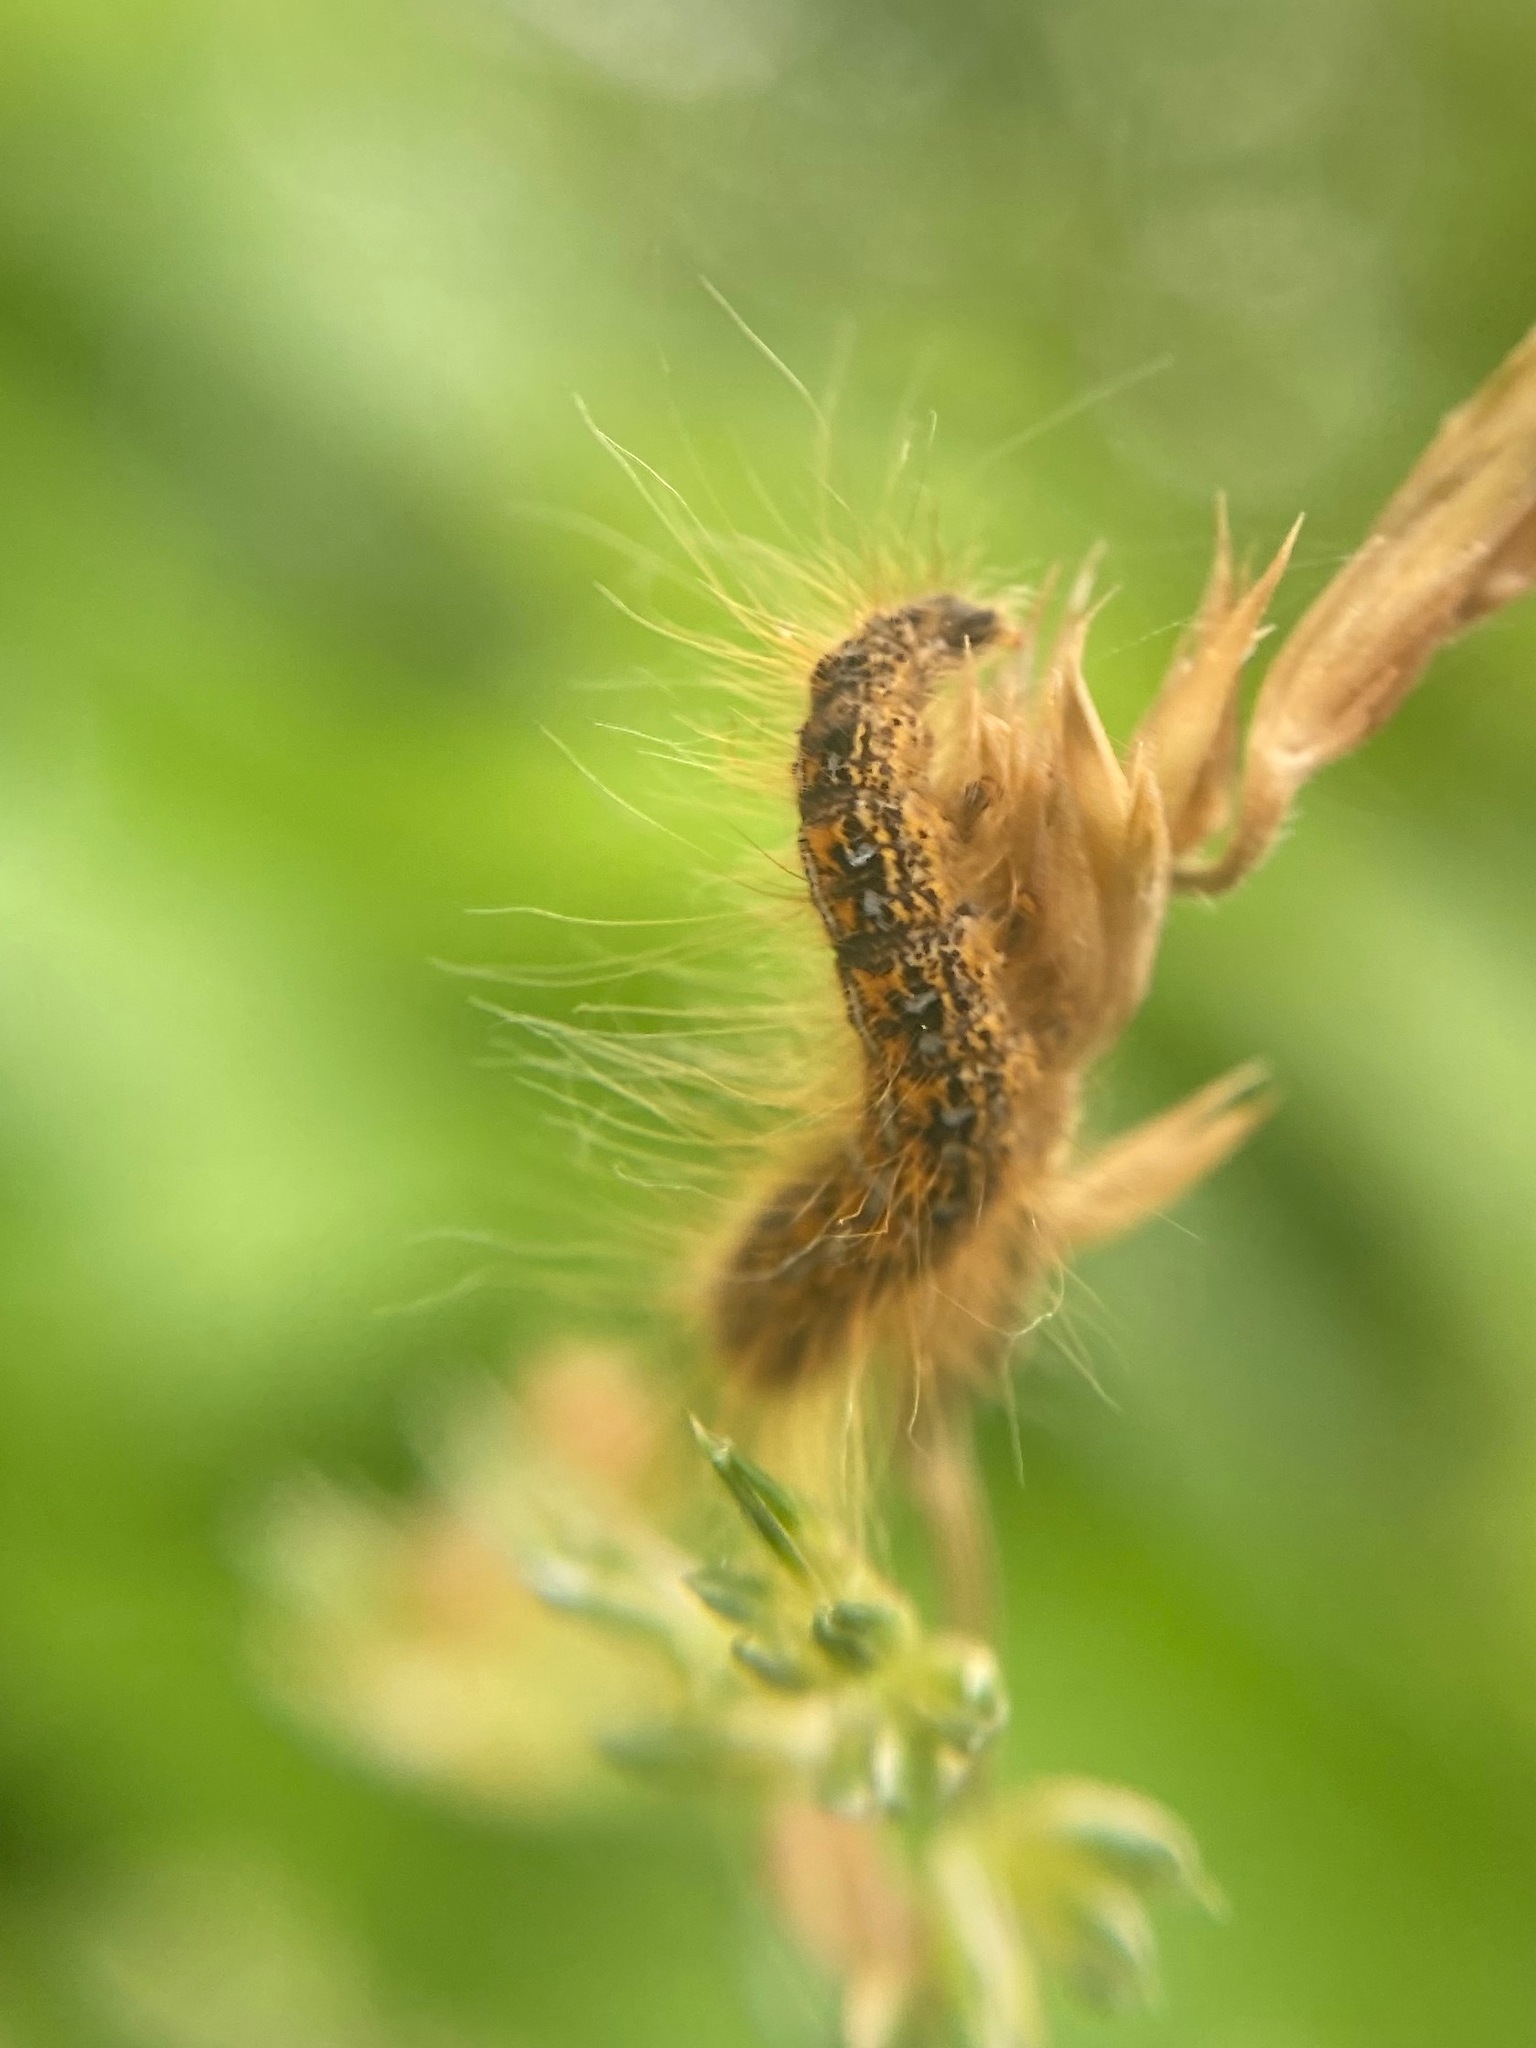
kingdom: Animalia
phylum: Arthropoda
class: Insecta
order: Lepidoptera
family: Lasiocampidae
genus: Malacosoma
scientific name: Malacosoma californica
